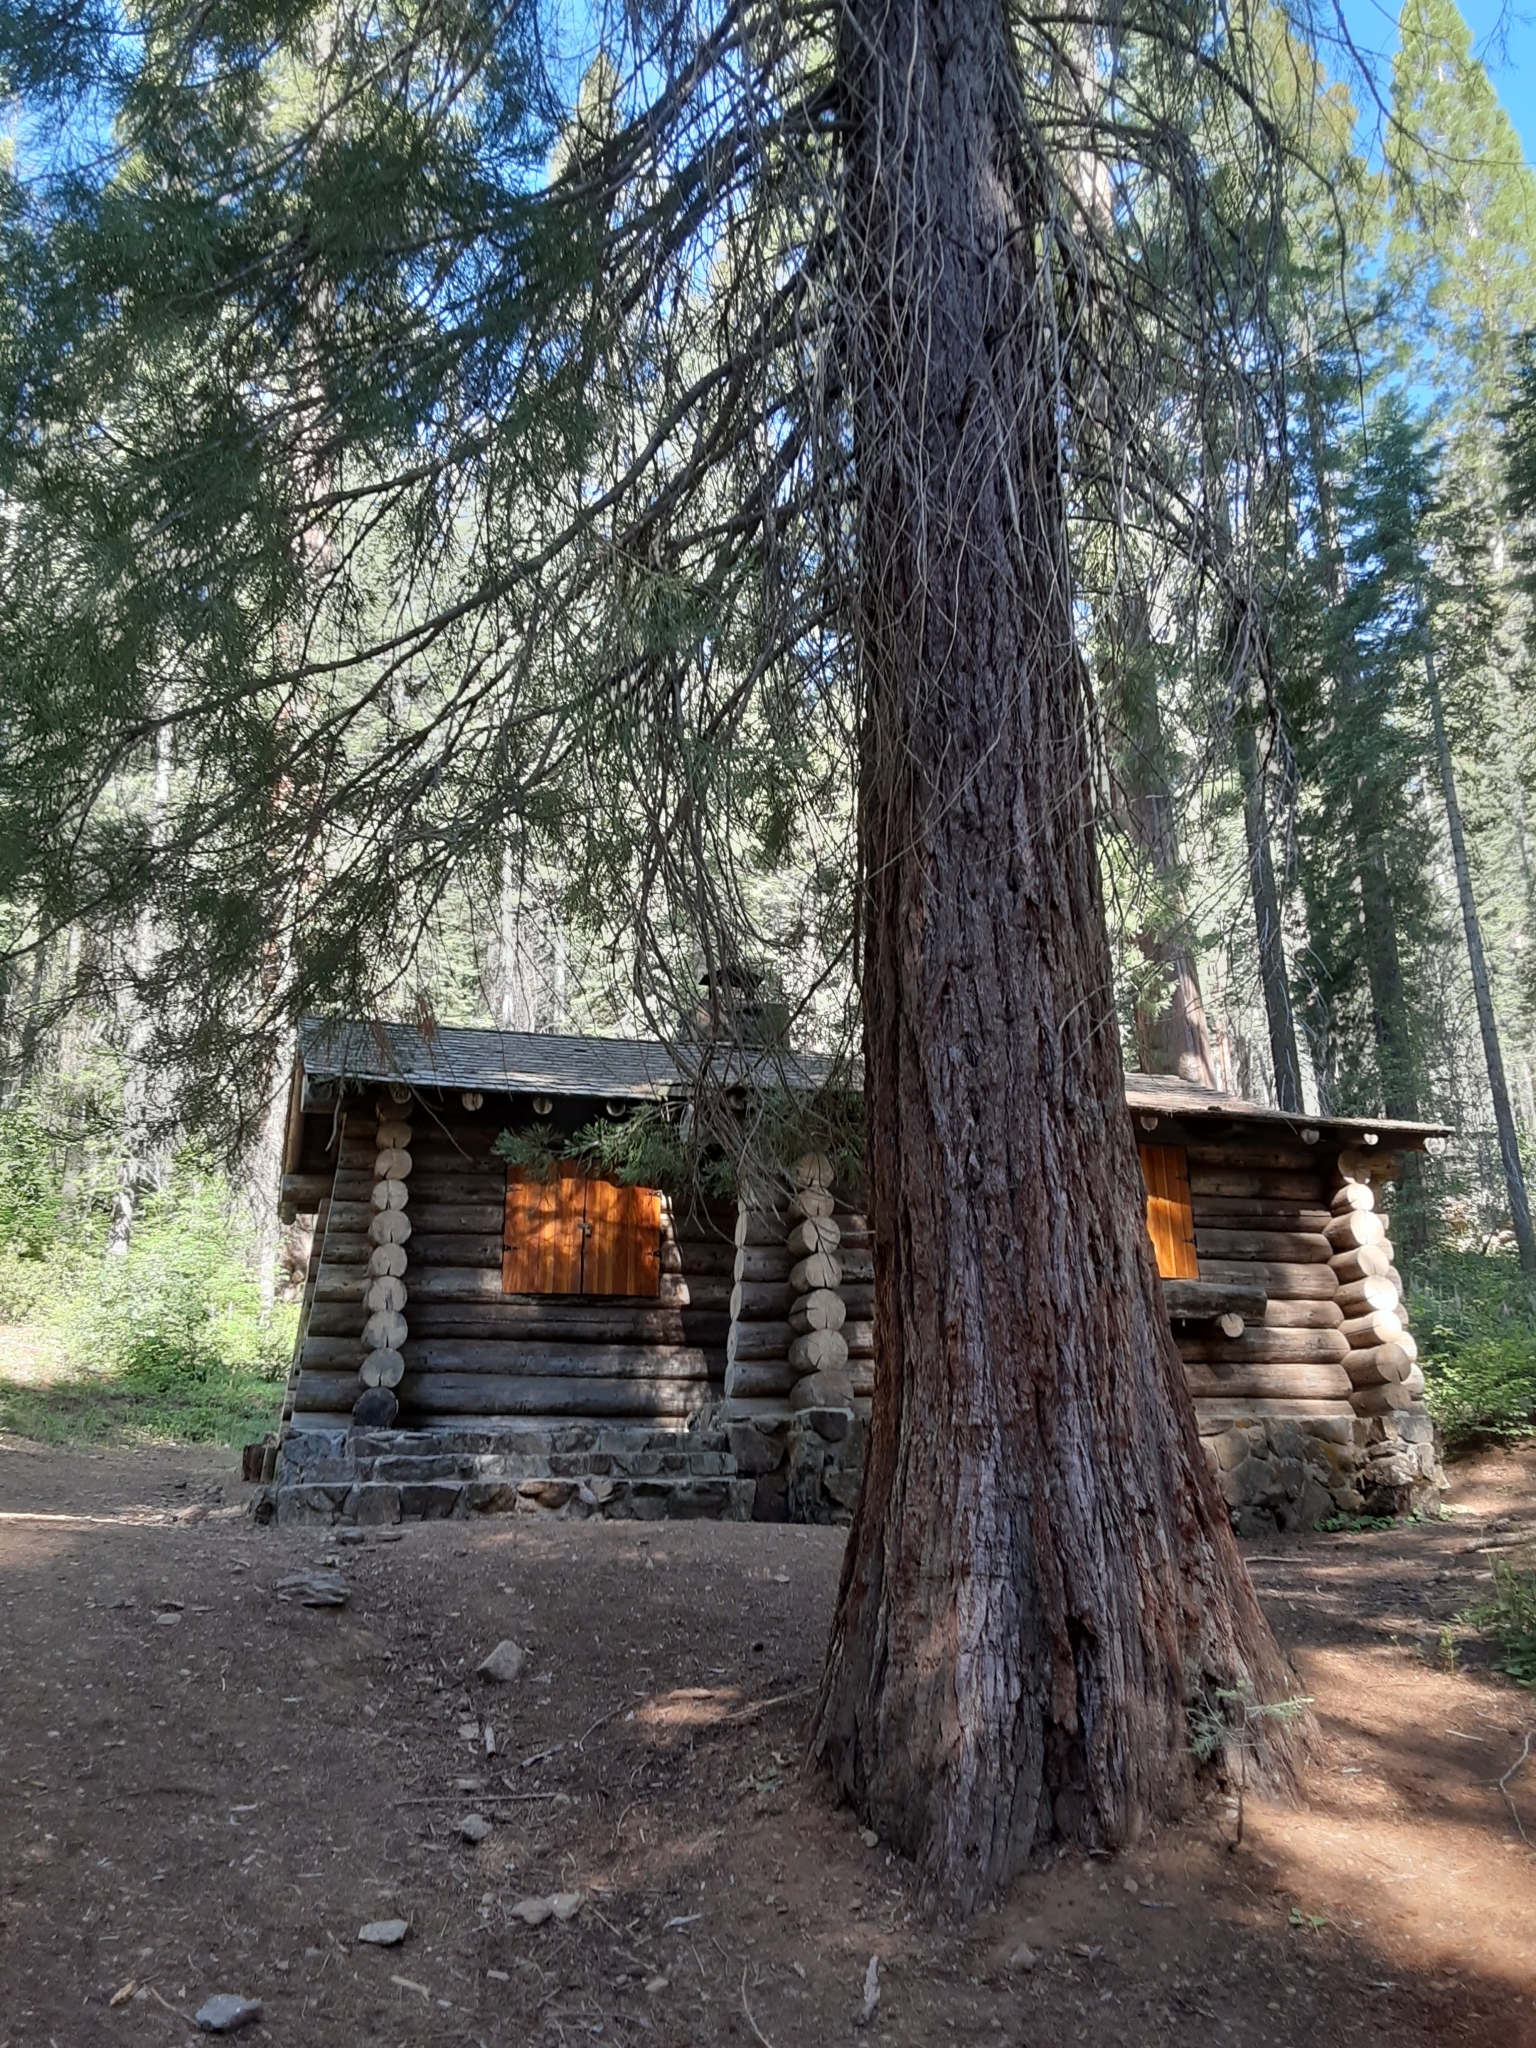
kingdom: Plantae
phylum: Tracheophyta
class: Pinopsida
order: Pinales
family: Cupressaceae
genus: Sequoiadendron
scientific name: Sequoiadendron giganteum
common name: Wellingtonia
